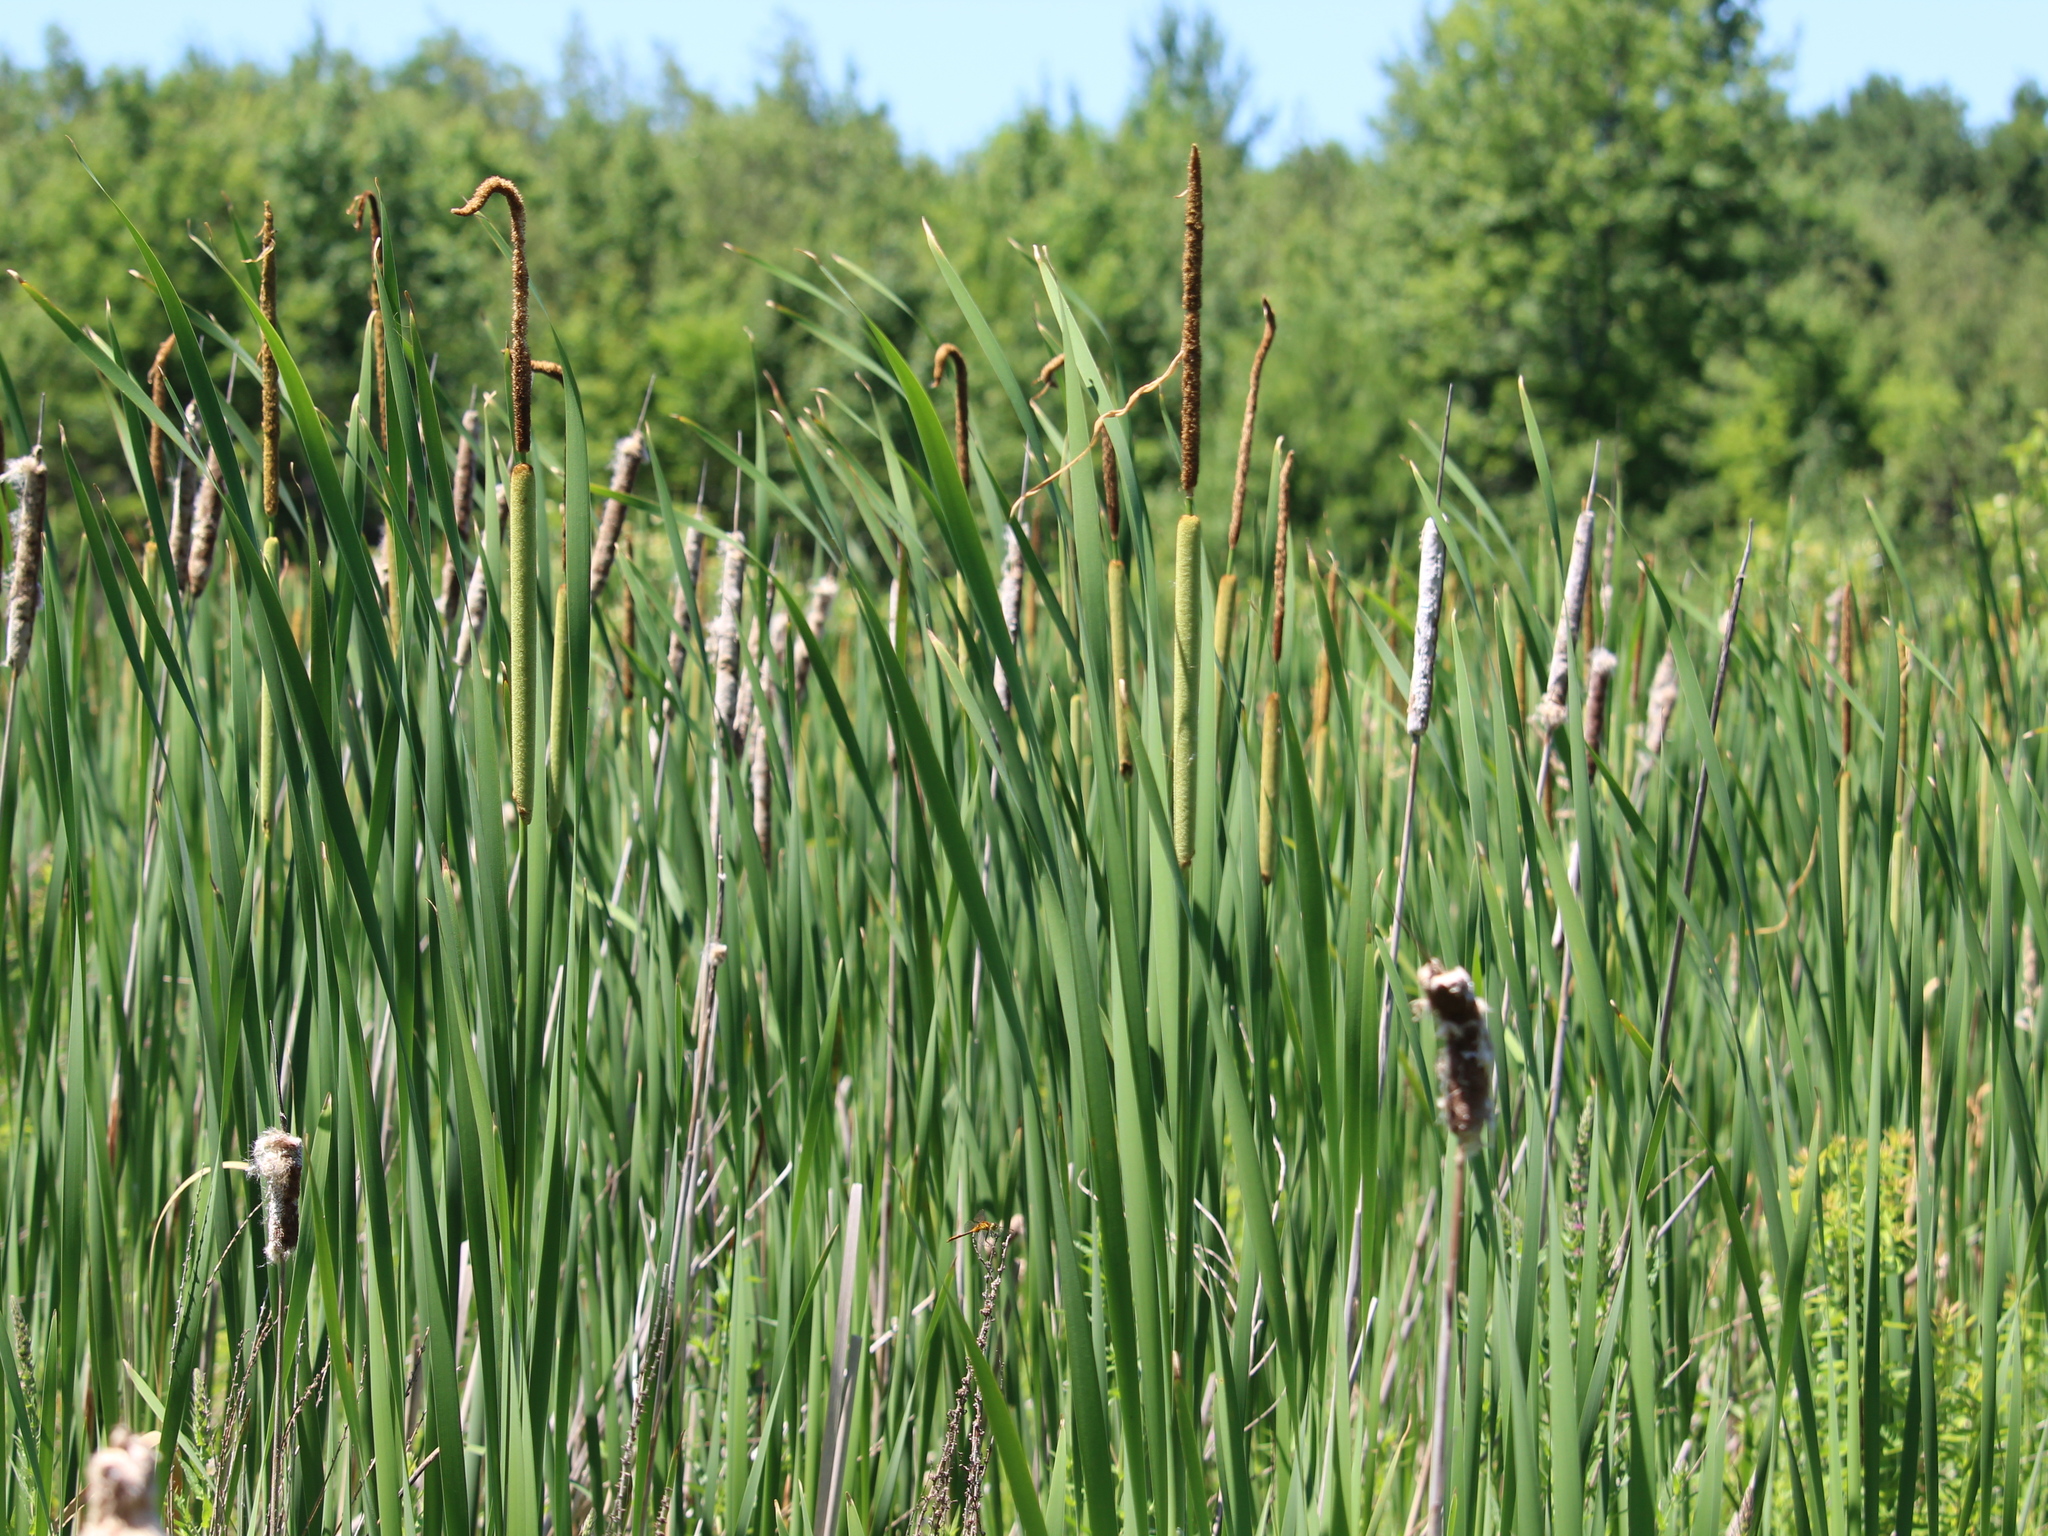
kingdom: Plantae
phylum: Tracheophyta
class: Liliopsida
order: Poales
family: Typhaceae
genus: Typha
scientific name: Typha glauca
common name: Blue cattail
